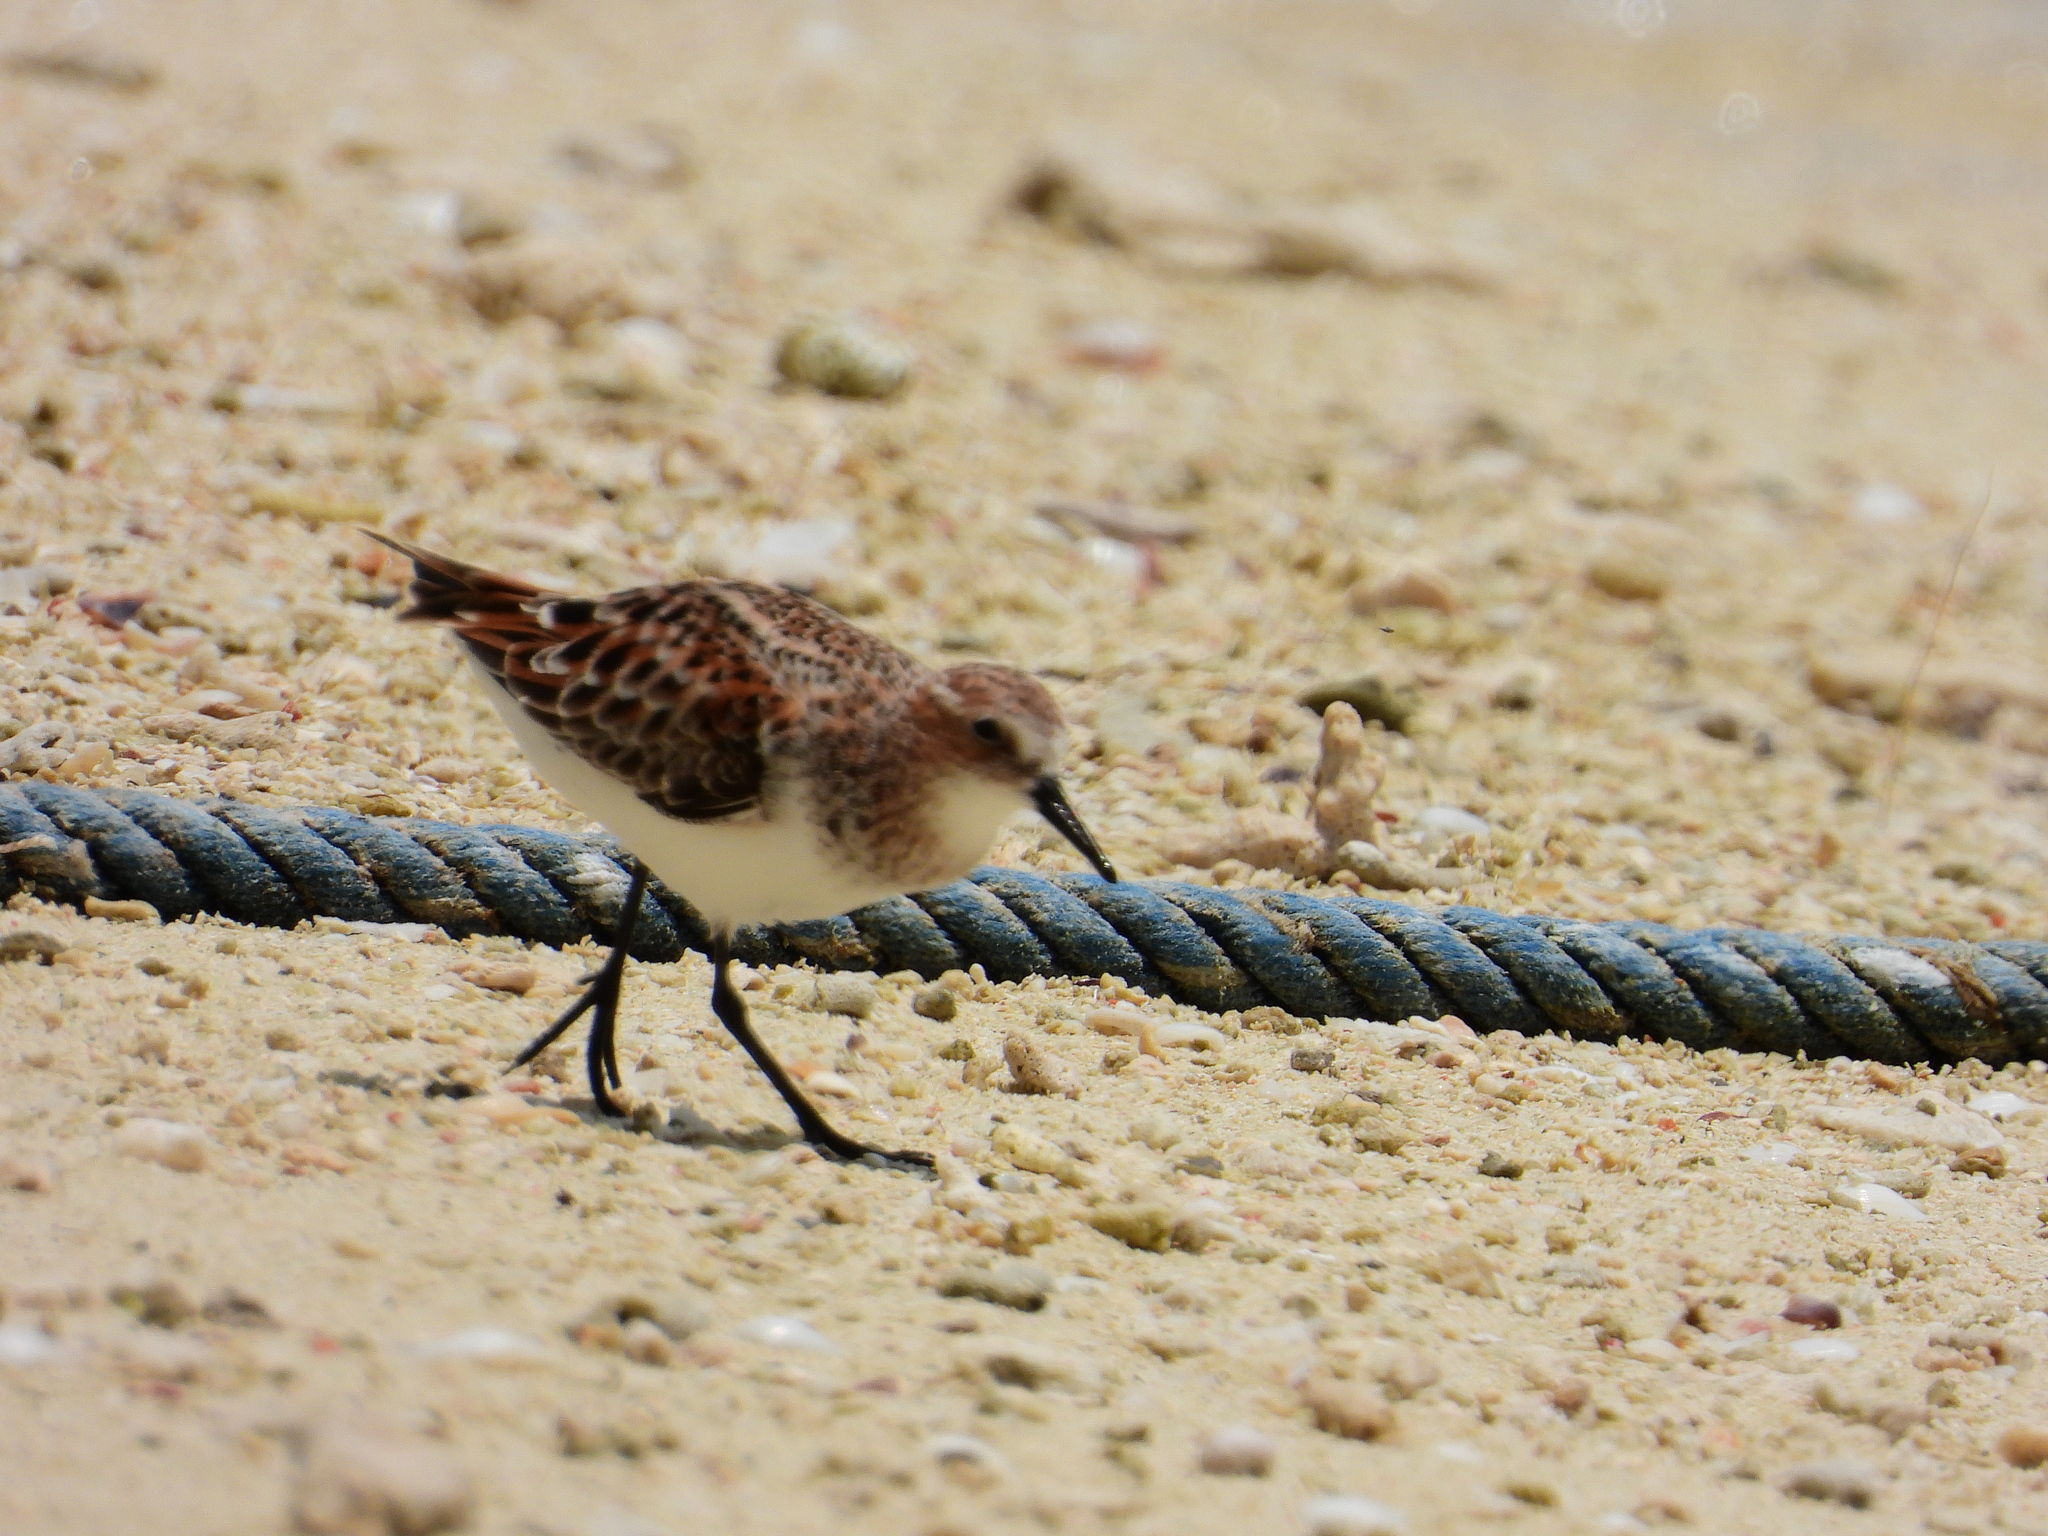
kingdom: Animalia
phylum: Chordata
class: Aves
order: Charadriiformes
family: Scolopacidae
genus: Calidris
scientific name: Calidris minuta
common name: Little stint
